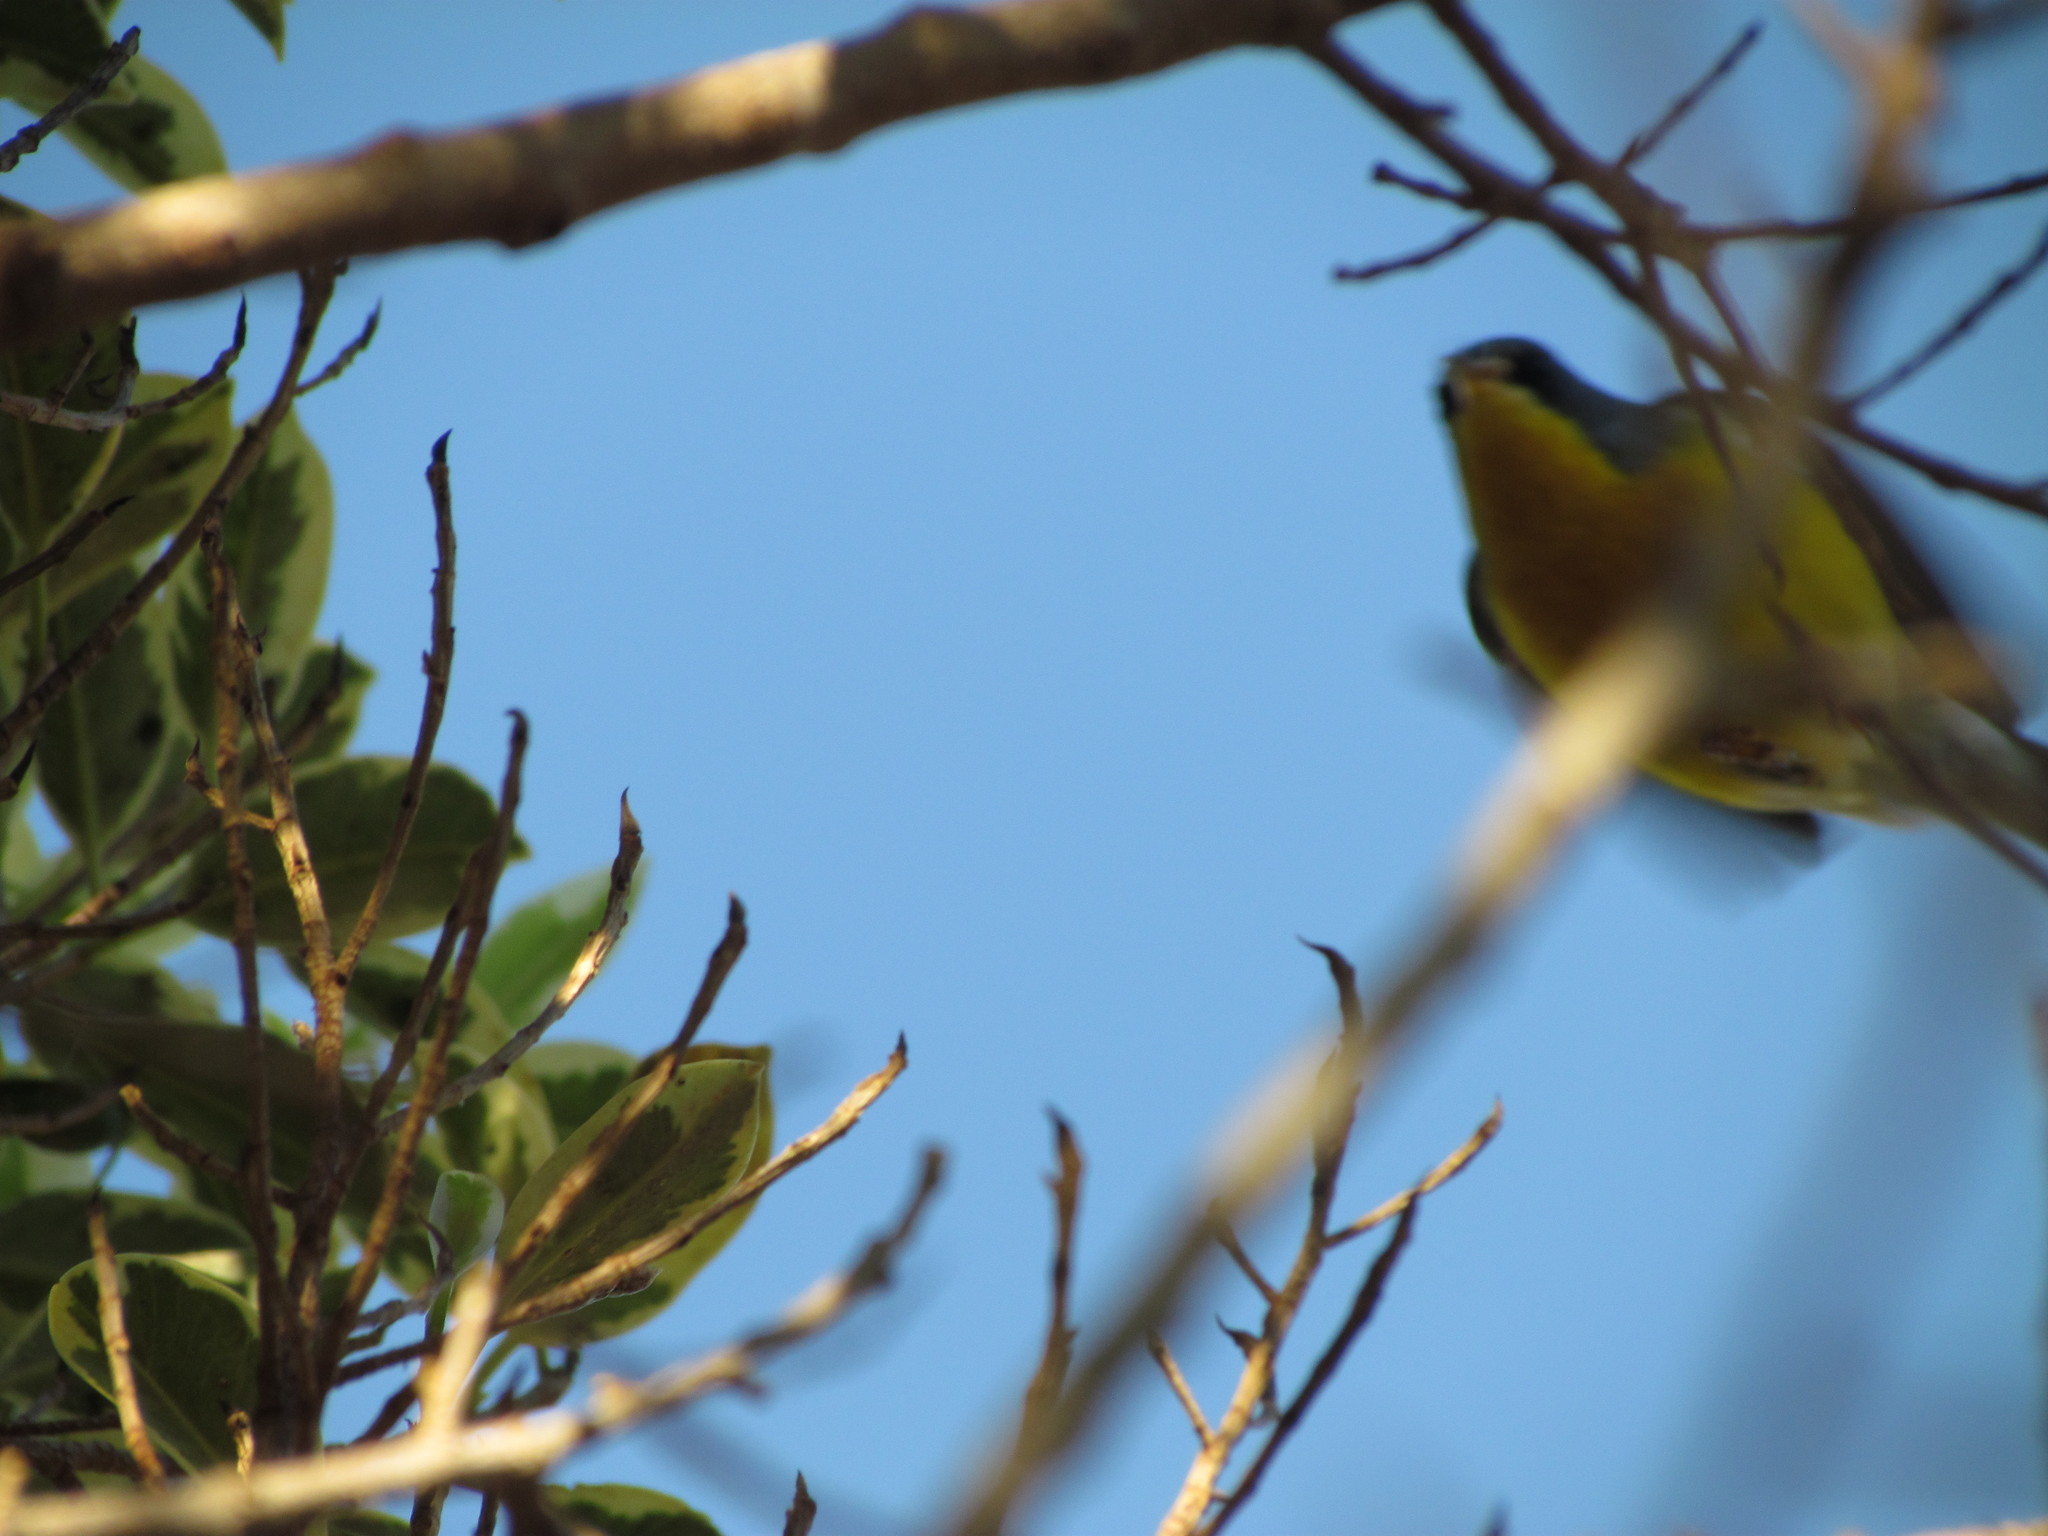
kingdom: Animalia
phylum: Chordata
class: Aves
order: Passeriformes
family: Parulidae
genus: Setophaga
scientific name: Setophaga pitiayumi
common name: Tropical parula
